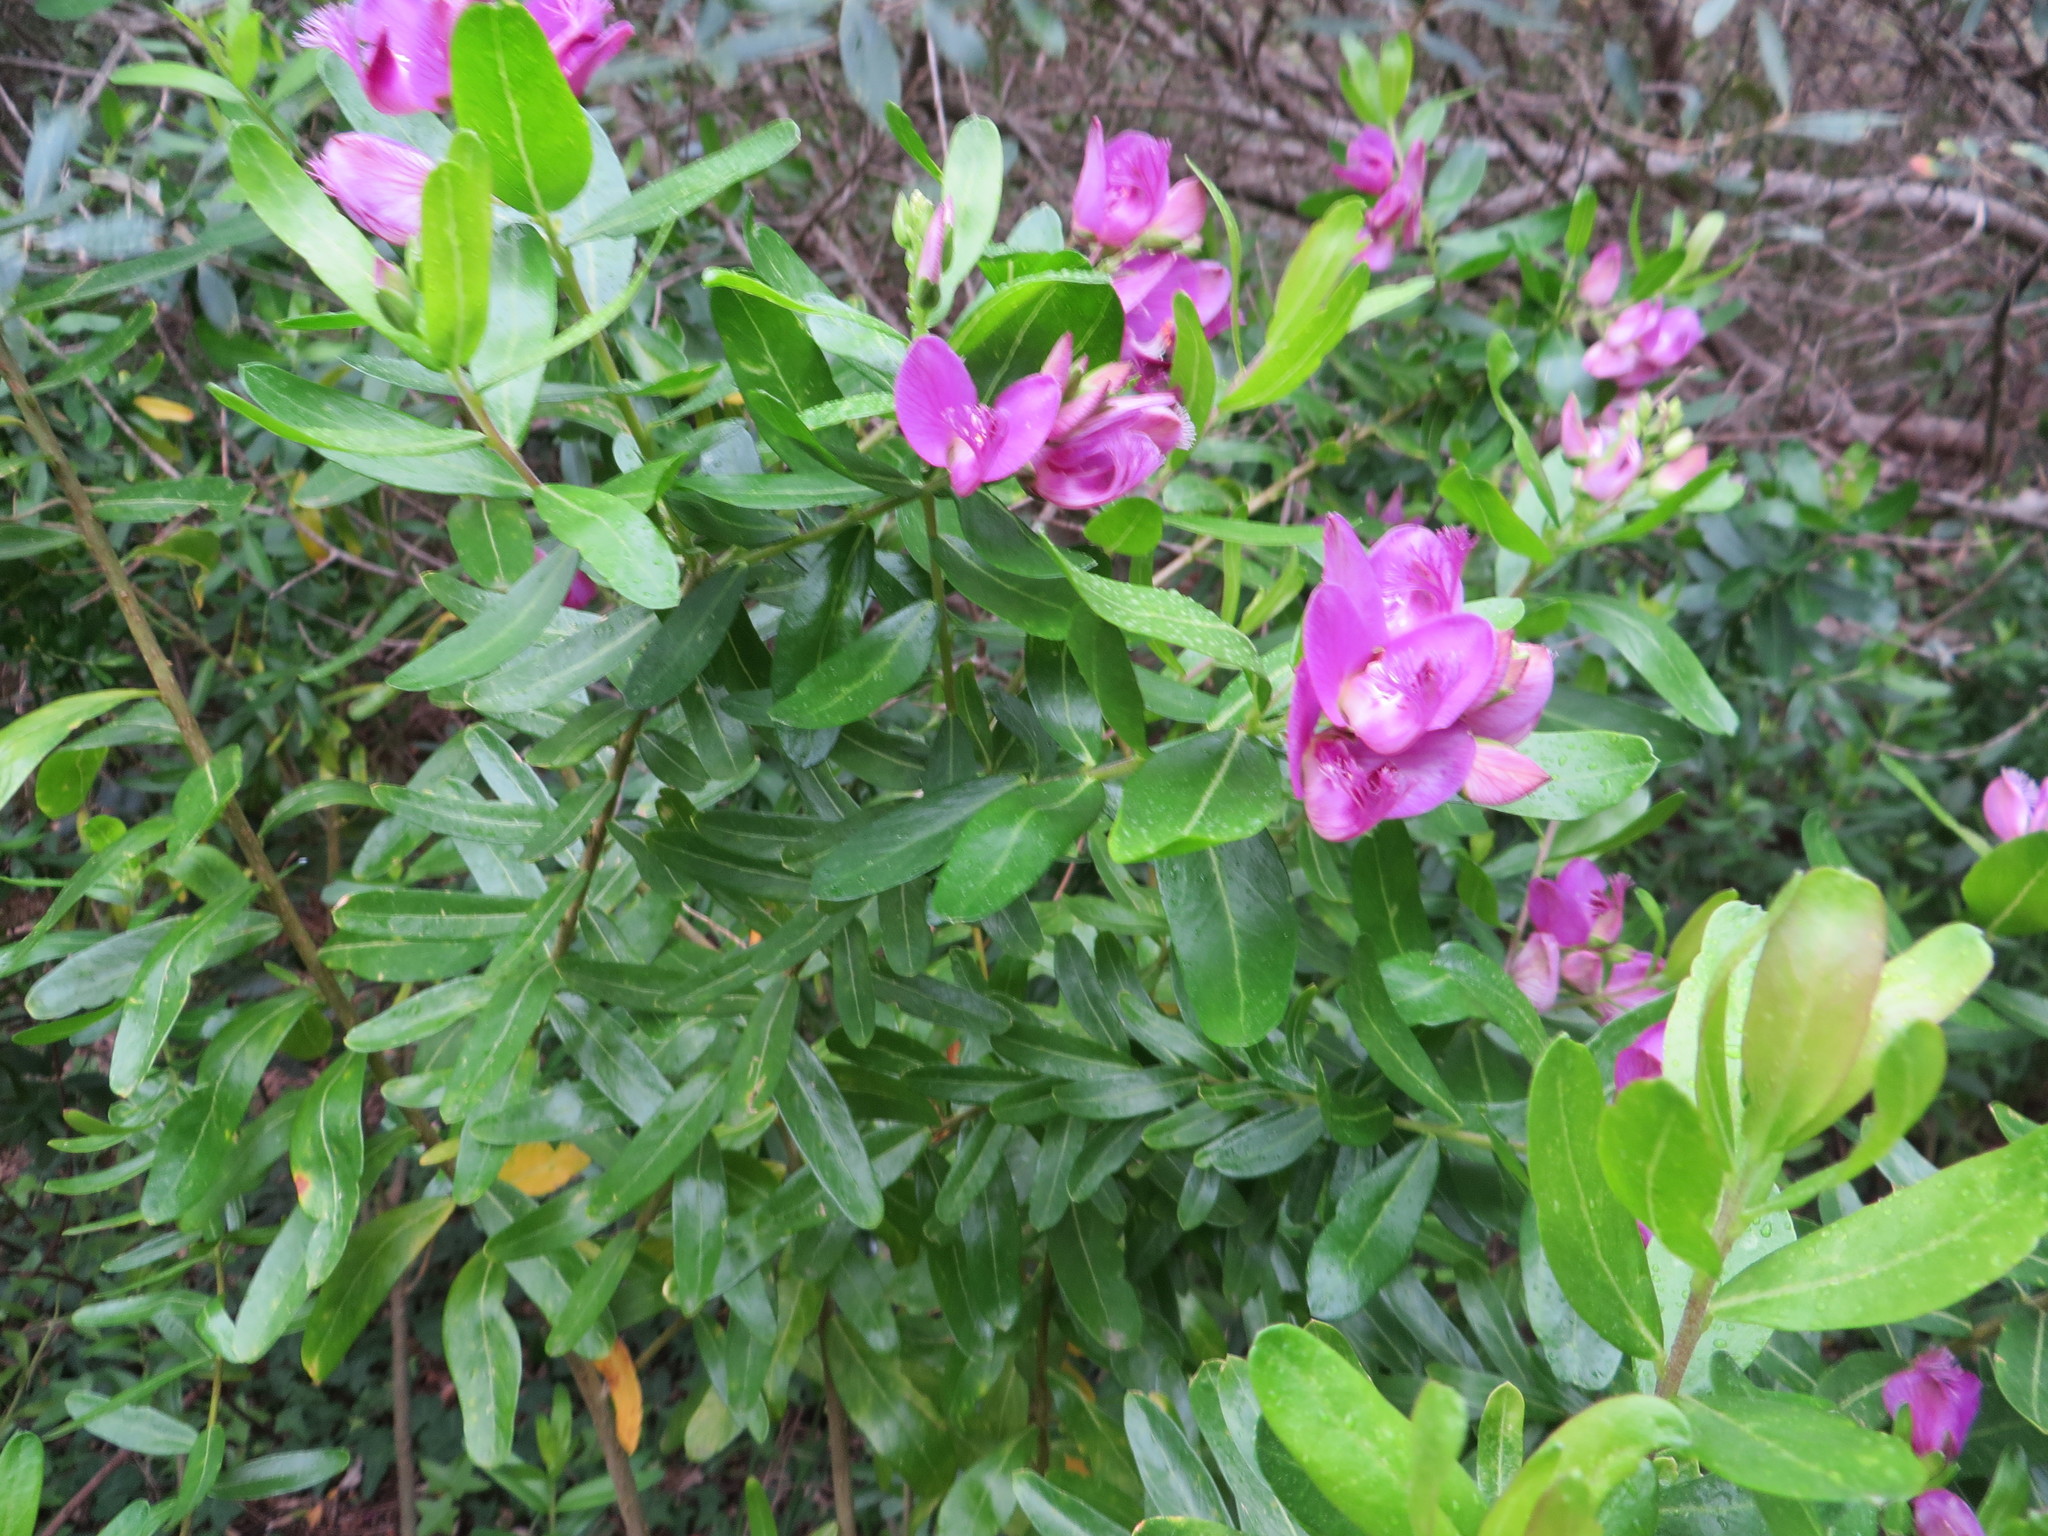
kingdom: Plantae
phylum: Tracheophyta
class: Magnoliopsida
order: Fabales
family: Polygalaceae
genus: Polygala
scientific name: Polygala myrtifolia
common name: Myrtle-leaf milkwort
